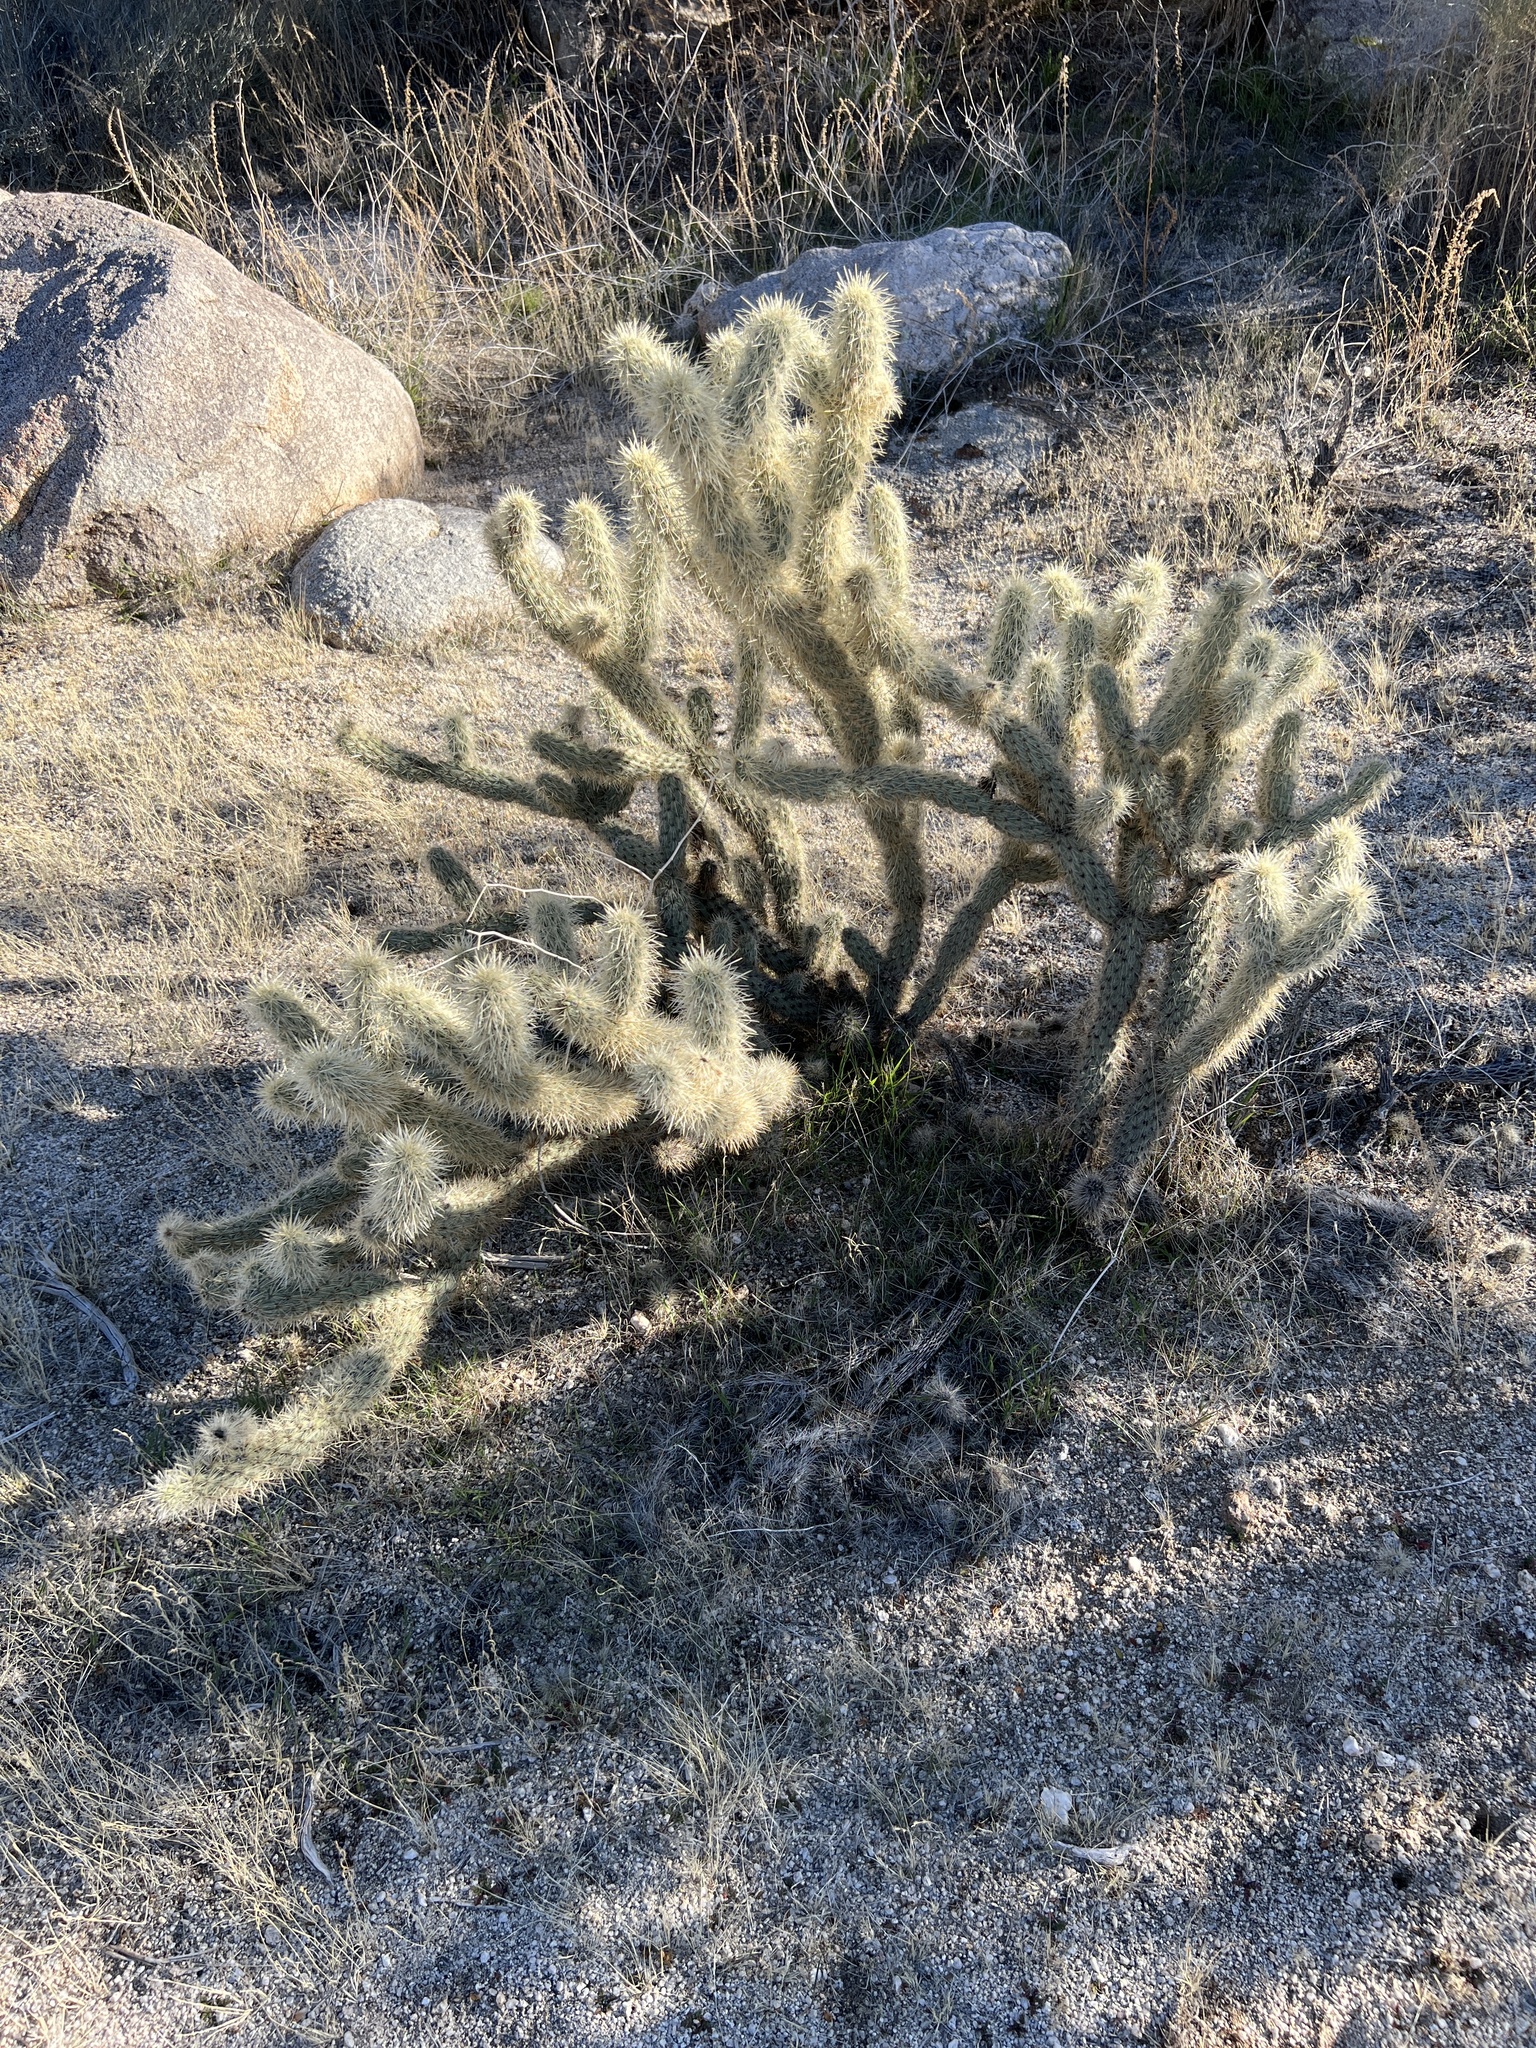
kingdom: Plantae
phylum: Tracheophyta
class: Magnoliopsida
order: Caryophyllales
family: Cactaceae
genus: Cylindropuntia
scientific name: Cylindropuntia ganderi
